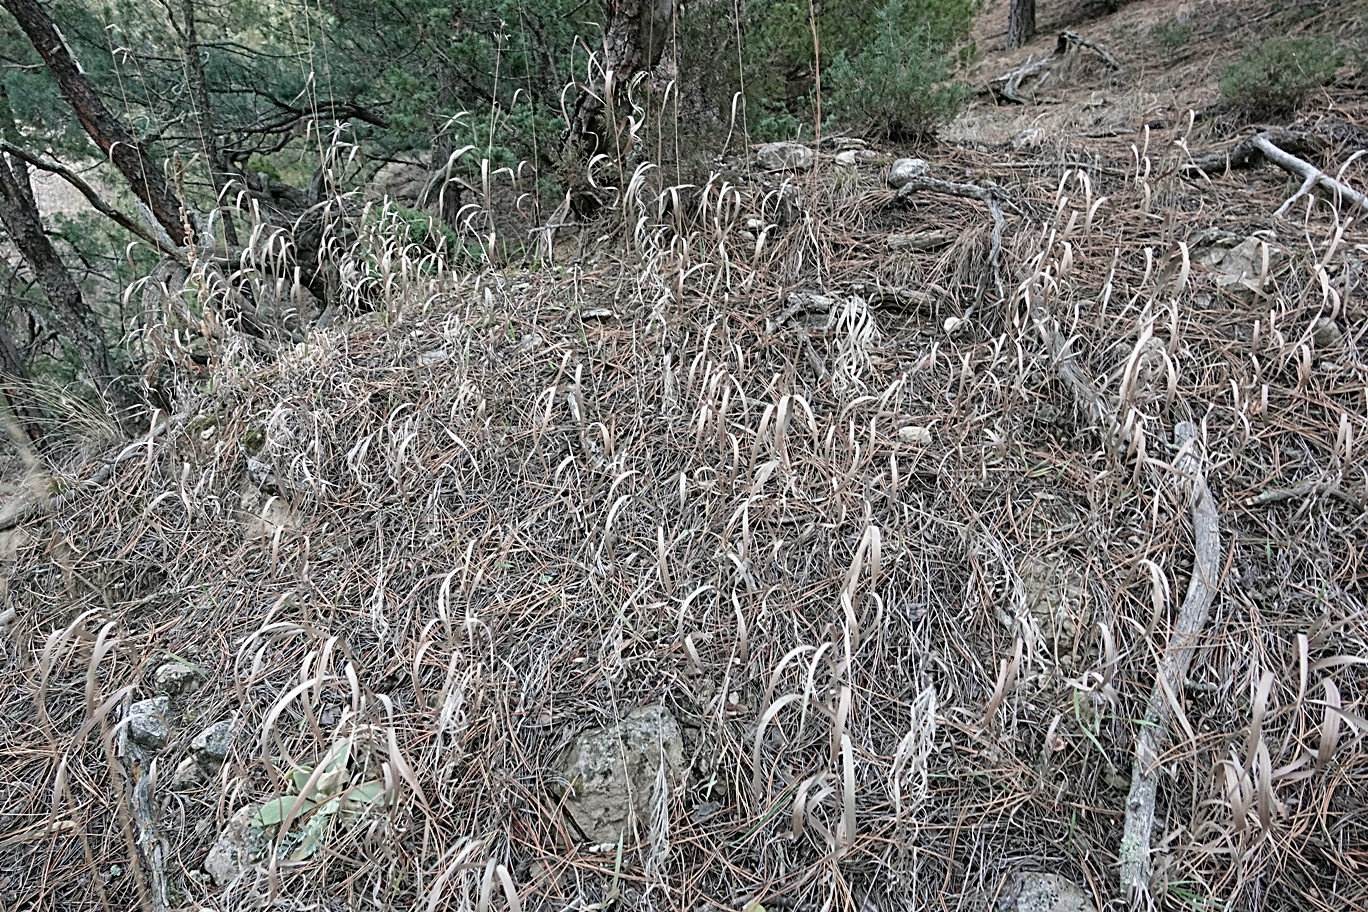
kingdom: Plantae
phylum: Tracheophyta
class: Liliopsida
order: Poales
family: Poaceae
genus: Bromus
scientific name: Bromus inermis
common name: Smooth brome
